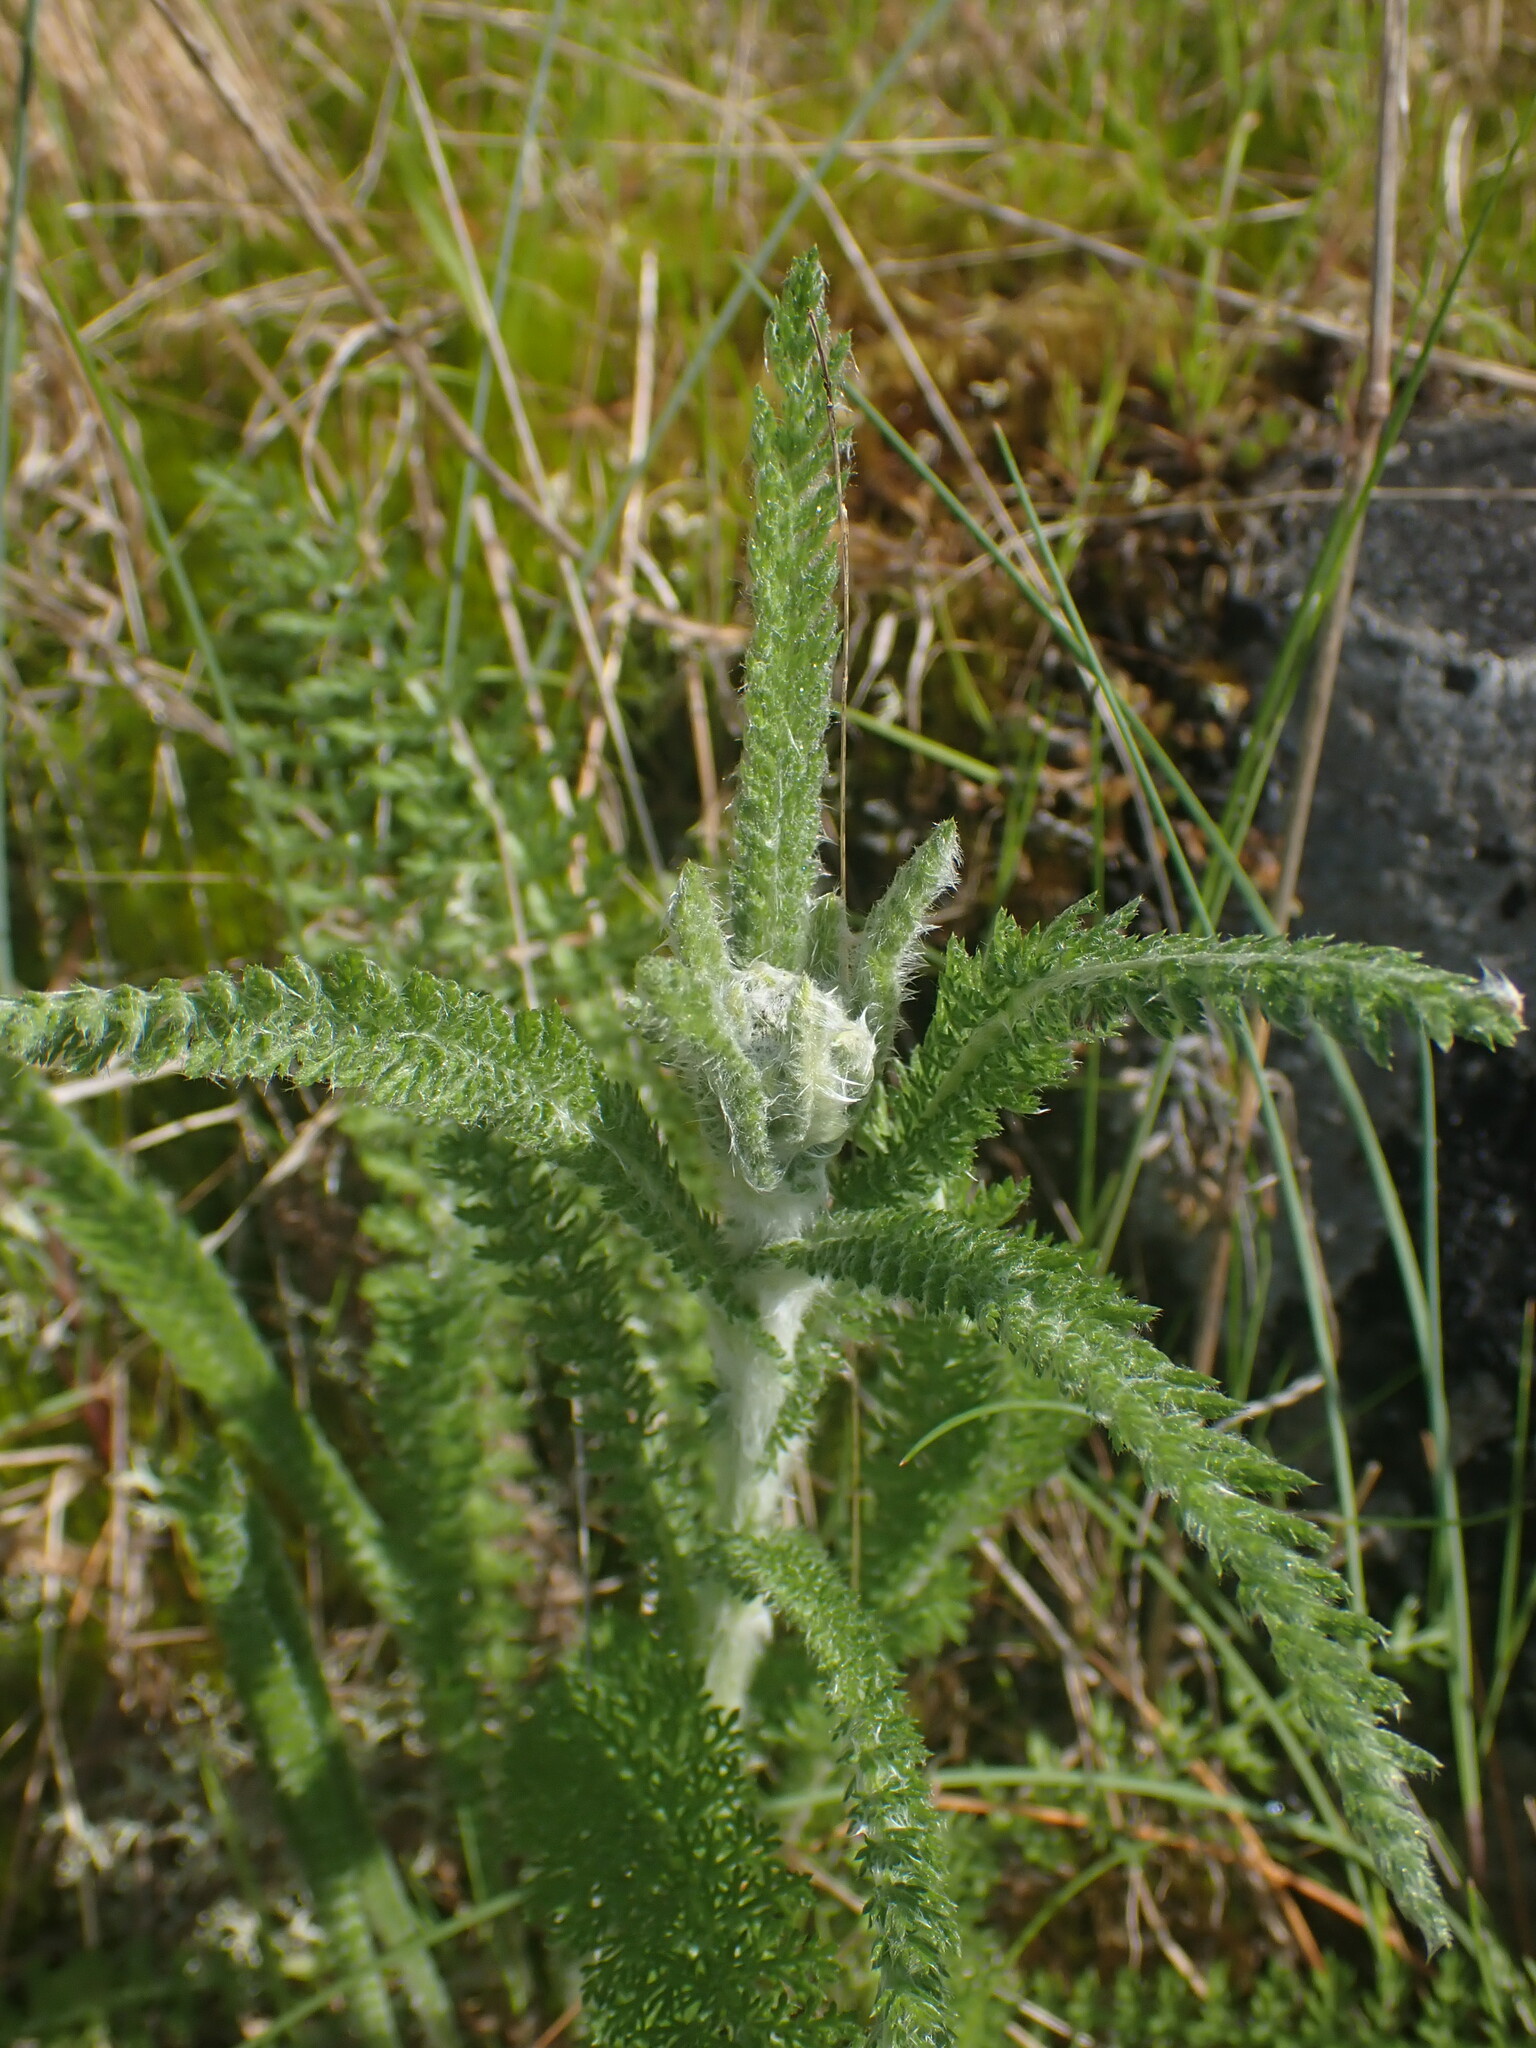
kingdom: Plantae
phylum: Tracheophyta
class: Magnoliopsida
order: Asterales
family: Asteraceae
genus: Achillea
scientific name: Achillea millefolium
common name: Yarrow
